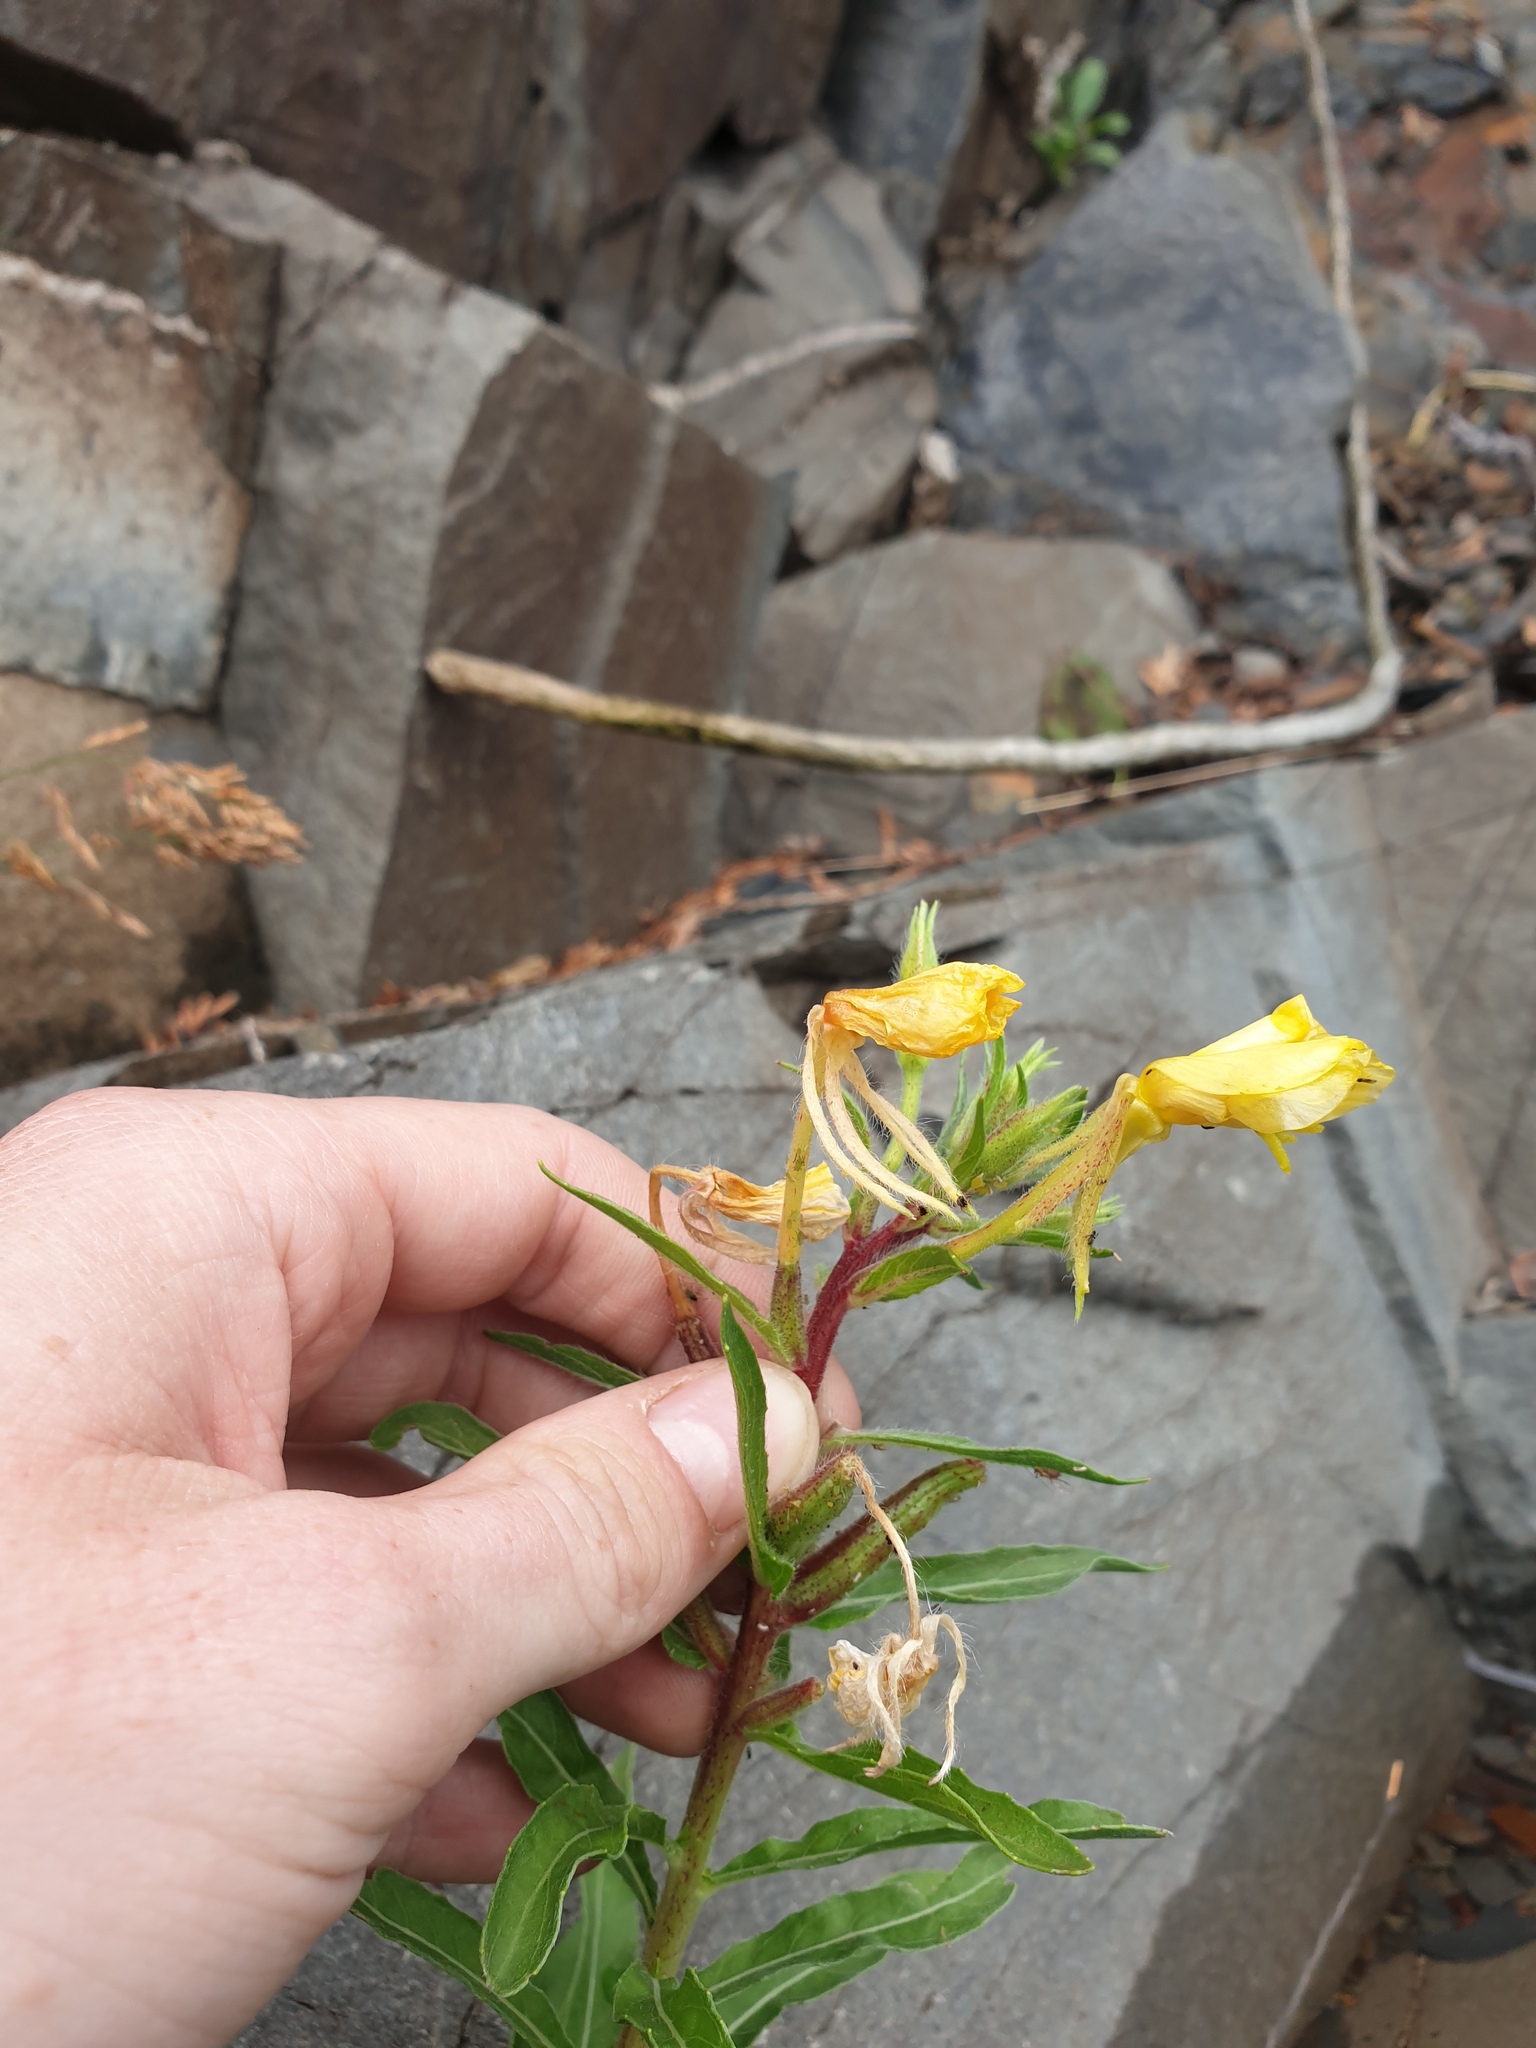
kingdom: Plantae
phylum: Tracheophyta
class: Magnoliopsida
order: Myrtales
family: Onagraceae
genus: Oenothera
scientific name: Oenothera parviflora
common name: Least evening-primrose
